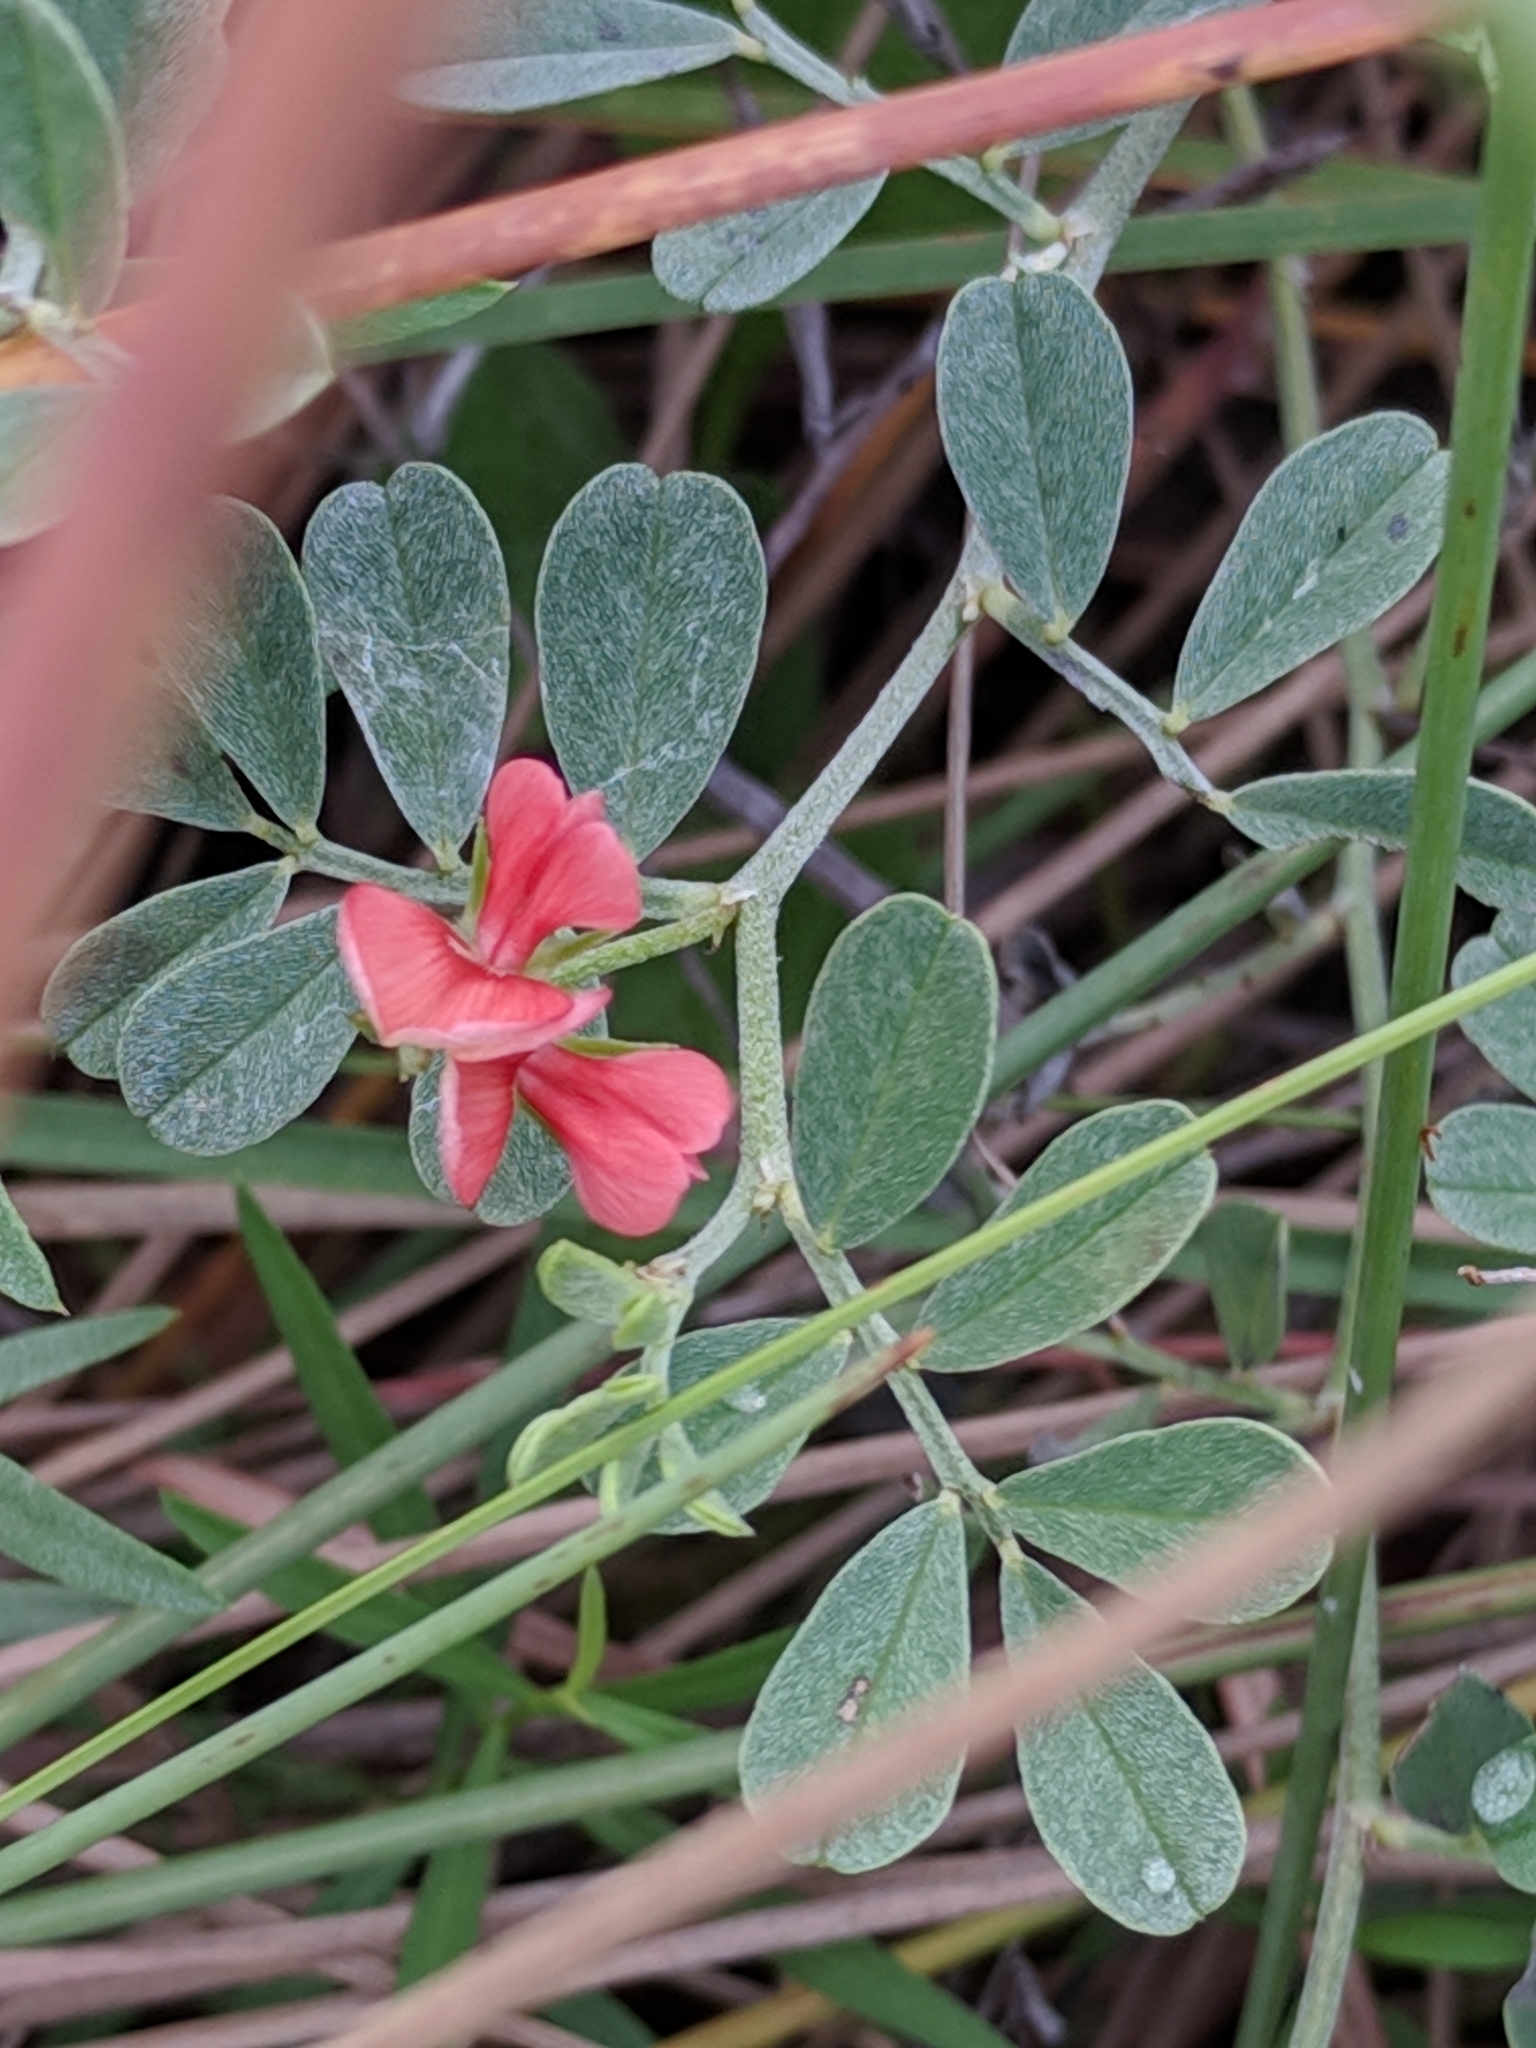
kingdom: Plantae
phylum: Tracheophyta
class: Magnoliopsida
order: Fabales
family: Fabaceae
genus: Indigofera
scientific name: Indigofera miniata
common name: Coast indigo
